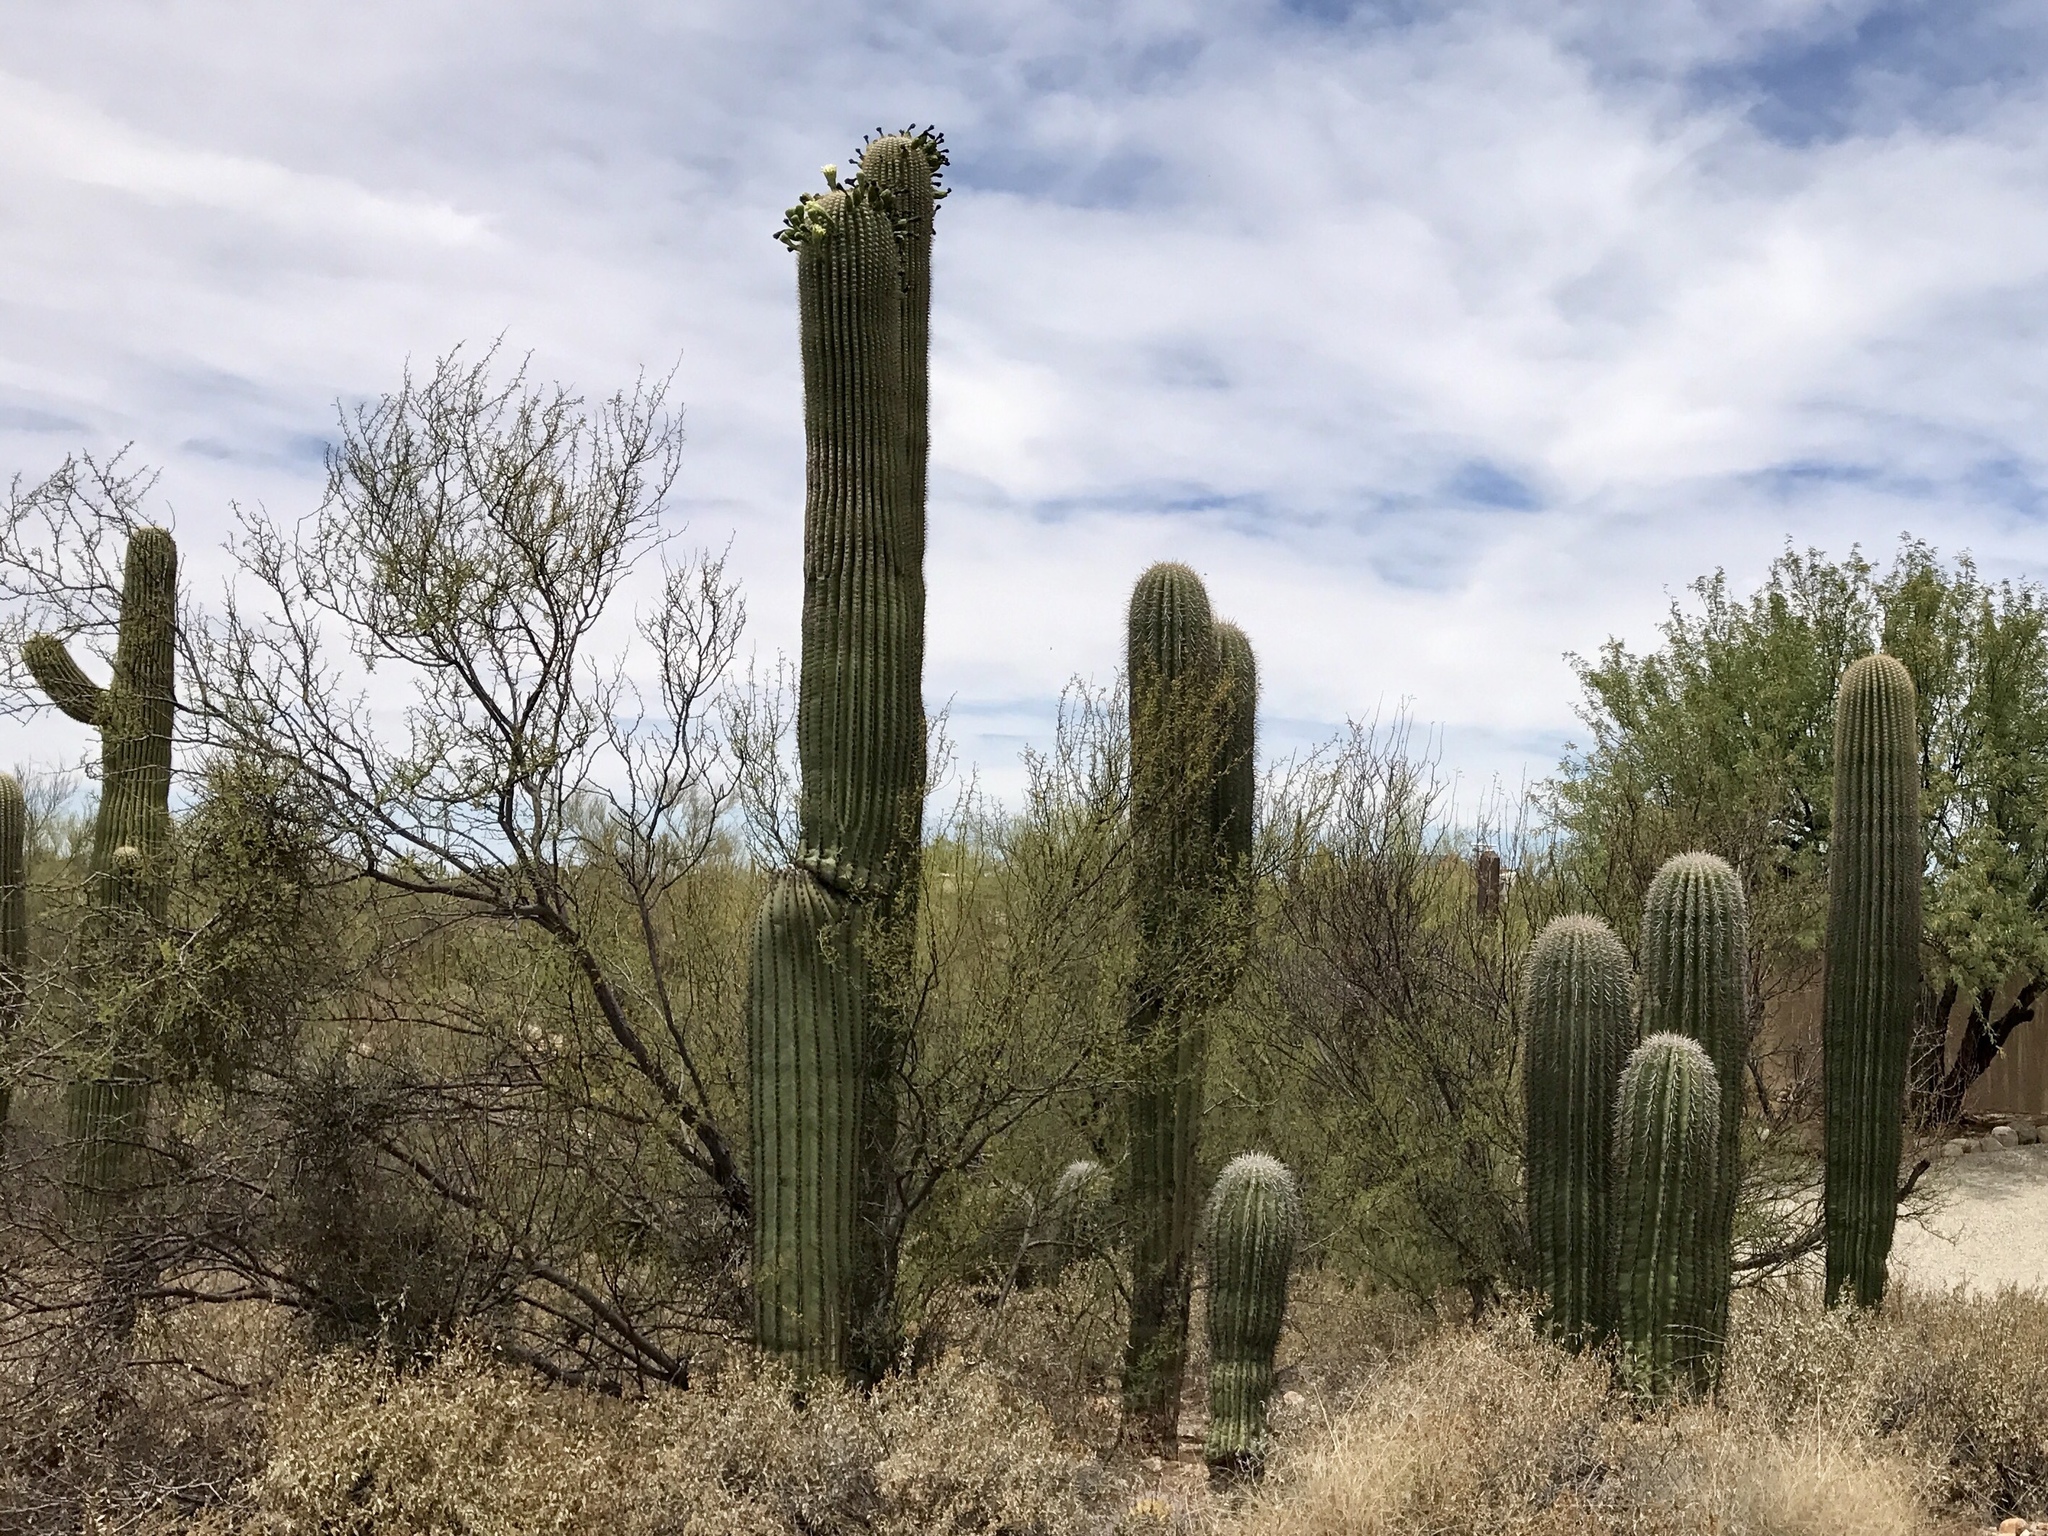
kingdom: Plantae
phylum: Tracheophyta
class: Magnoliopsida
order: Caryophyllales
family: Cactaceae
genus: Carnegiea
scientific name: Carnegiea gigantea
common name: Saguaro
